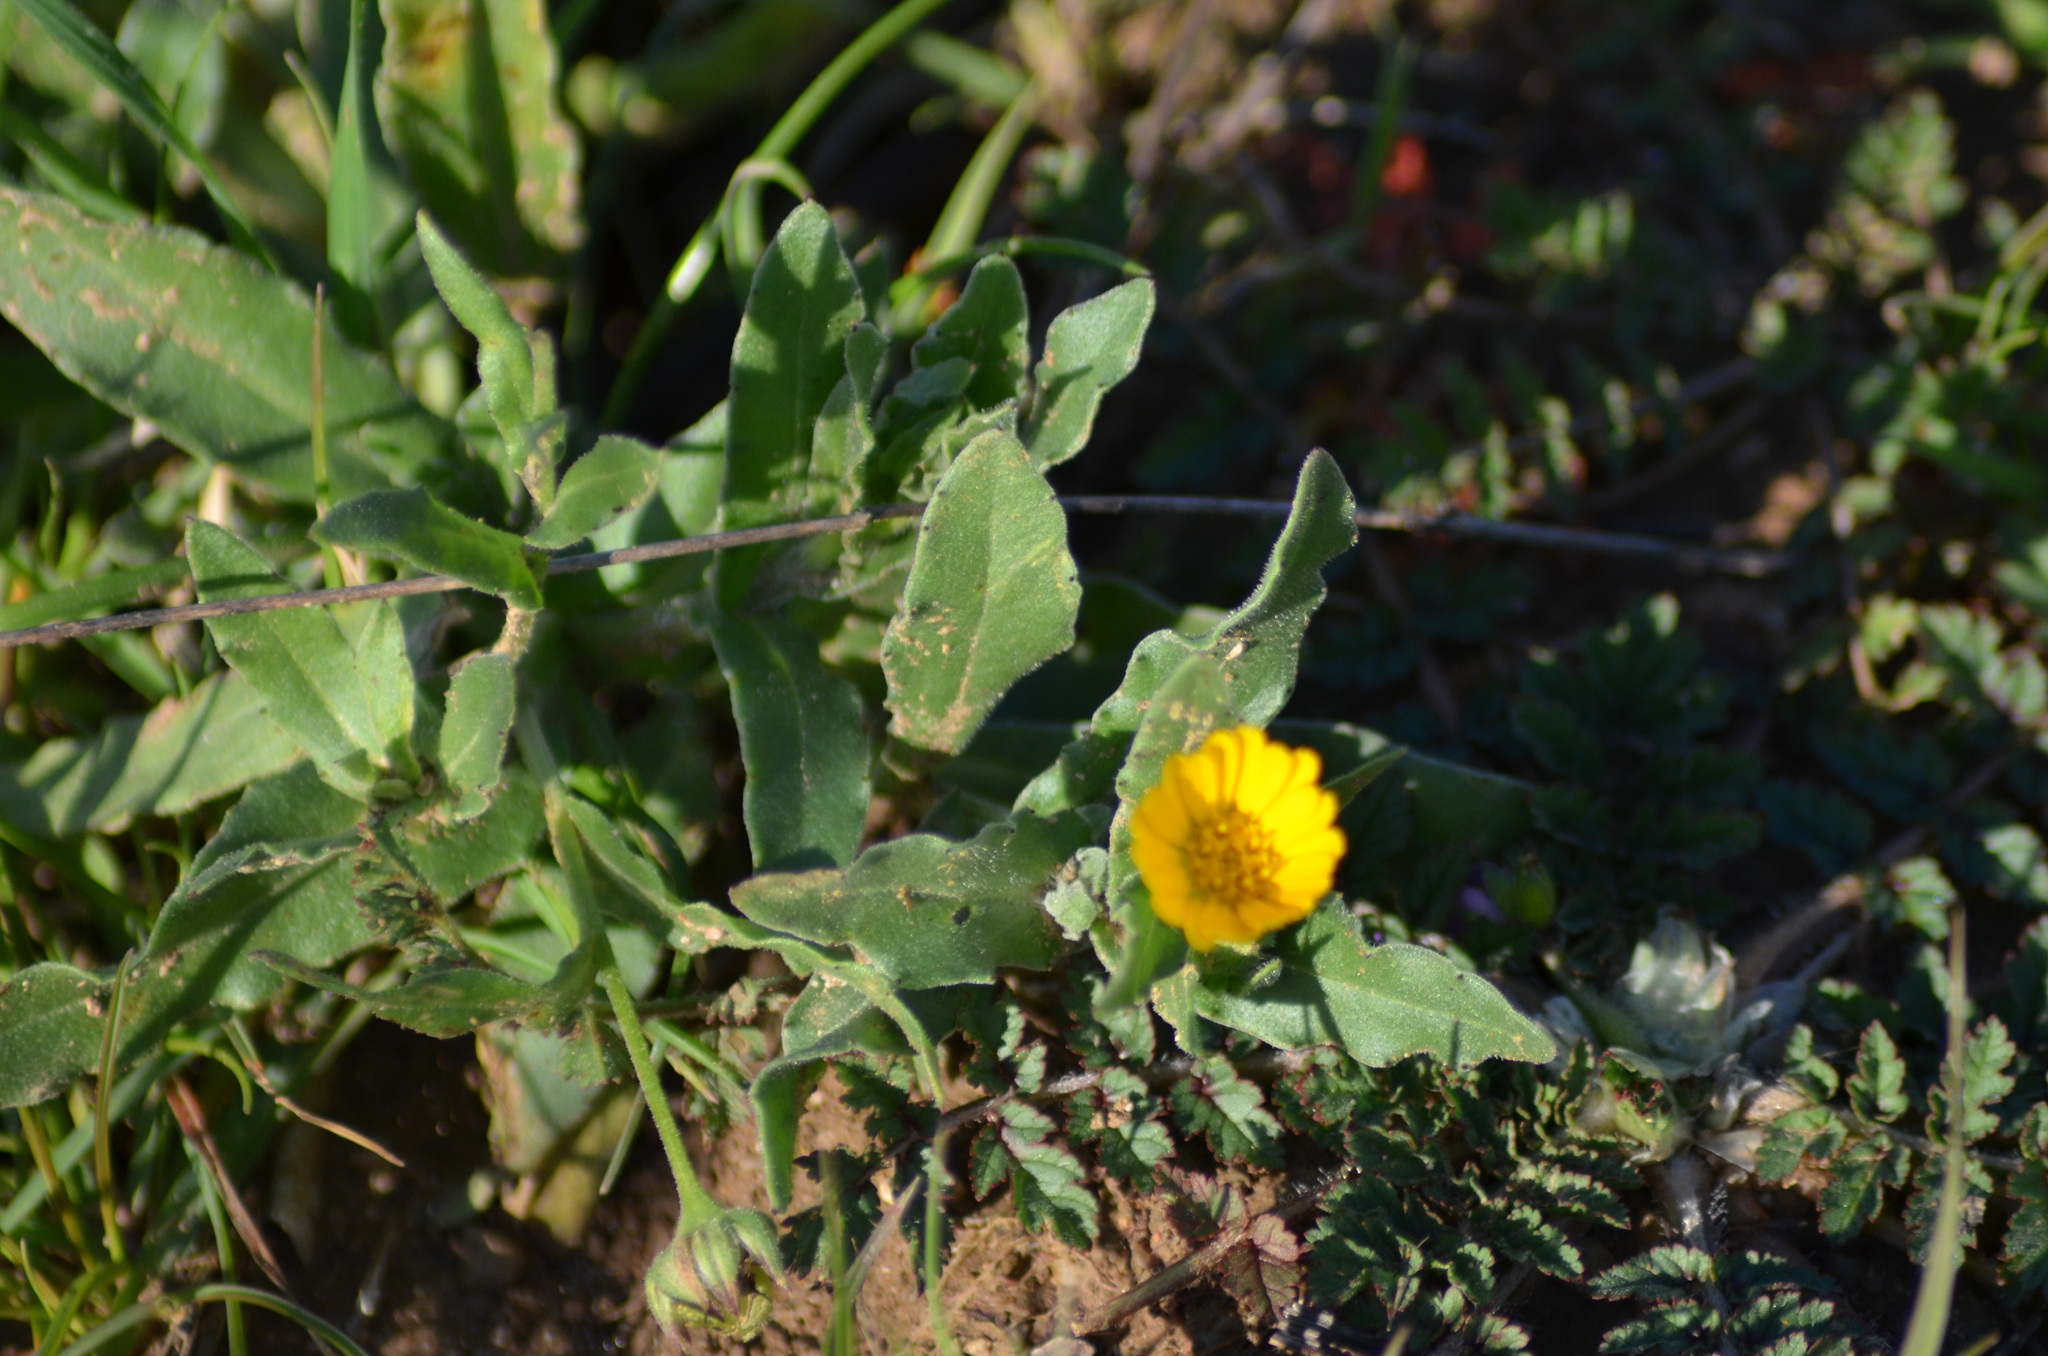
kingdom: Plantae
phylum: Tracheophyta
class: Magnoliopsida
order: Asterales
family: Asteraceae
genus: Calendula
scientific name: Calendula arvensis
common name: Field marigold
